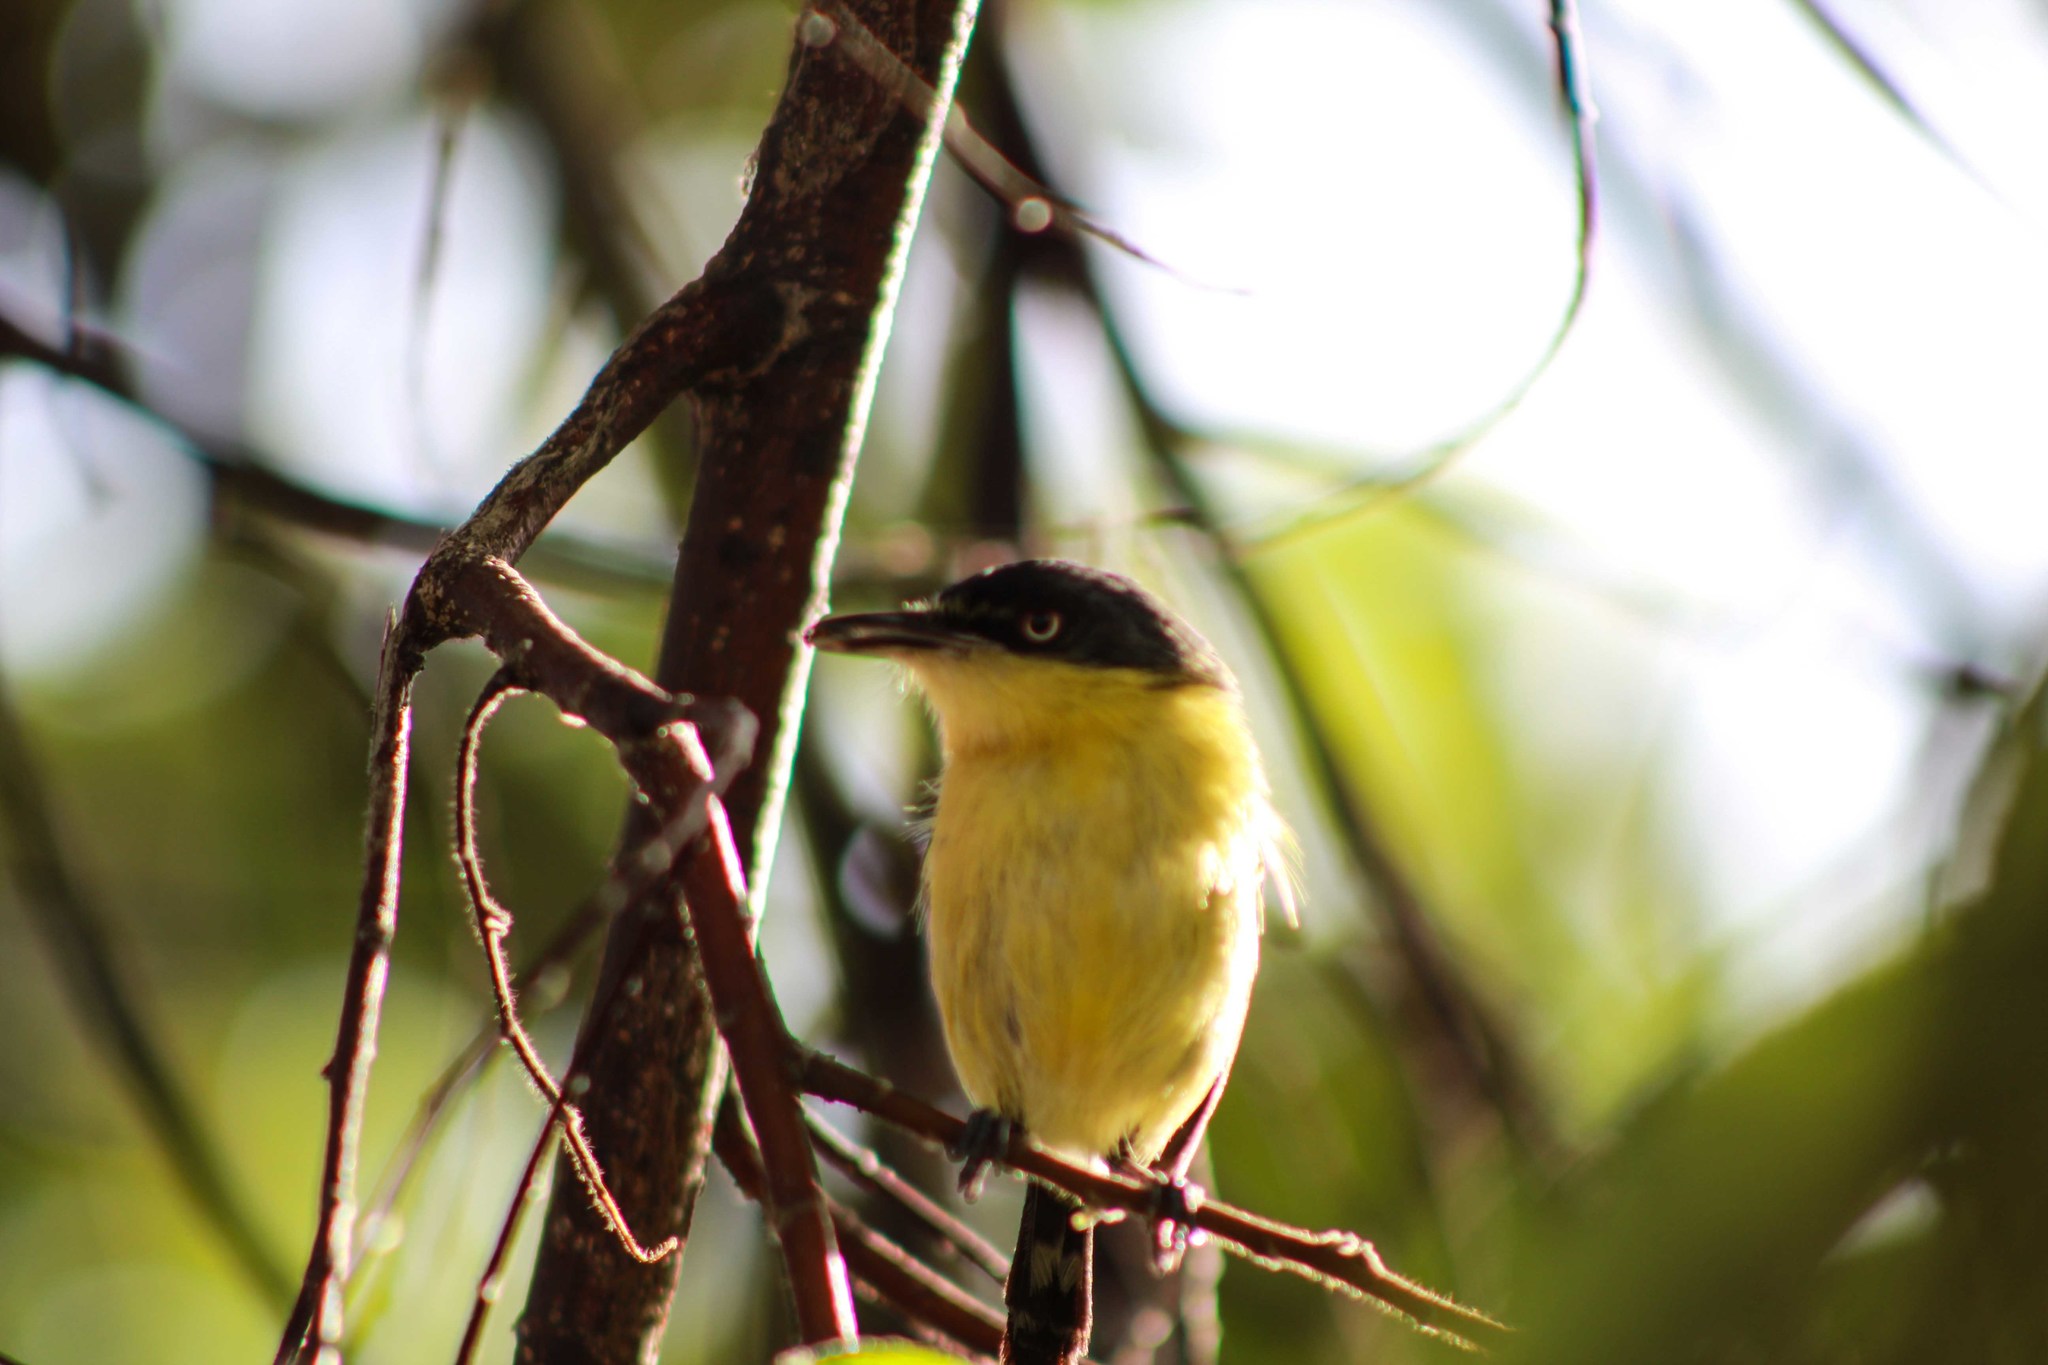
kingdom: Animalia
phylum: Chordata
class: Aves
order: Passeriformes
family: Tyrannidae
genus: Todirostrum
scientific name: Todirostrum cinereum
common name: Common tody-flycatcher
